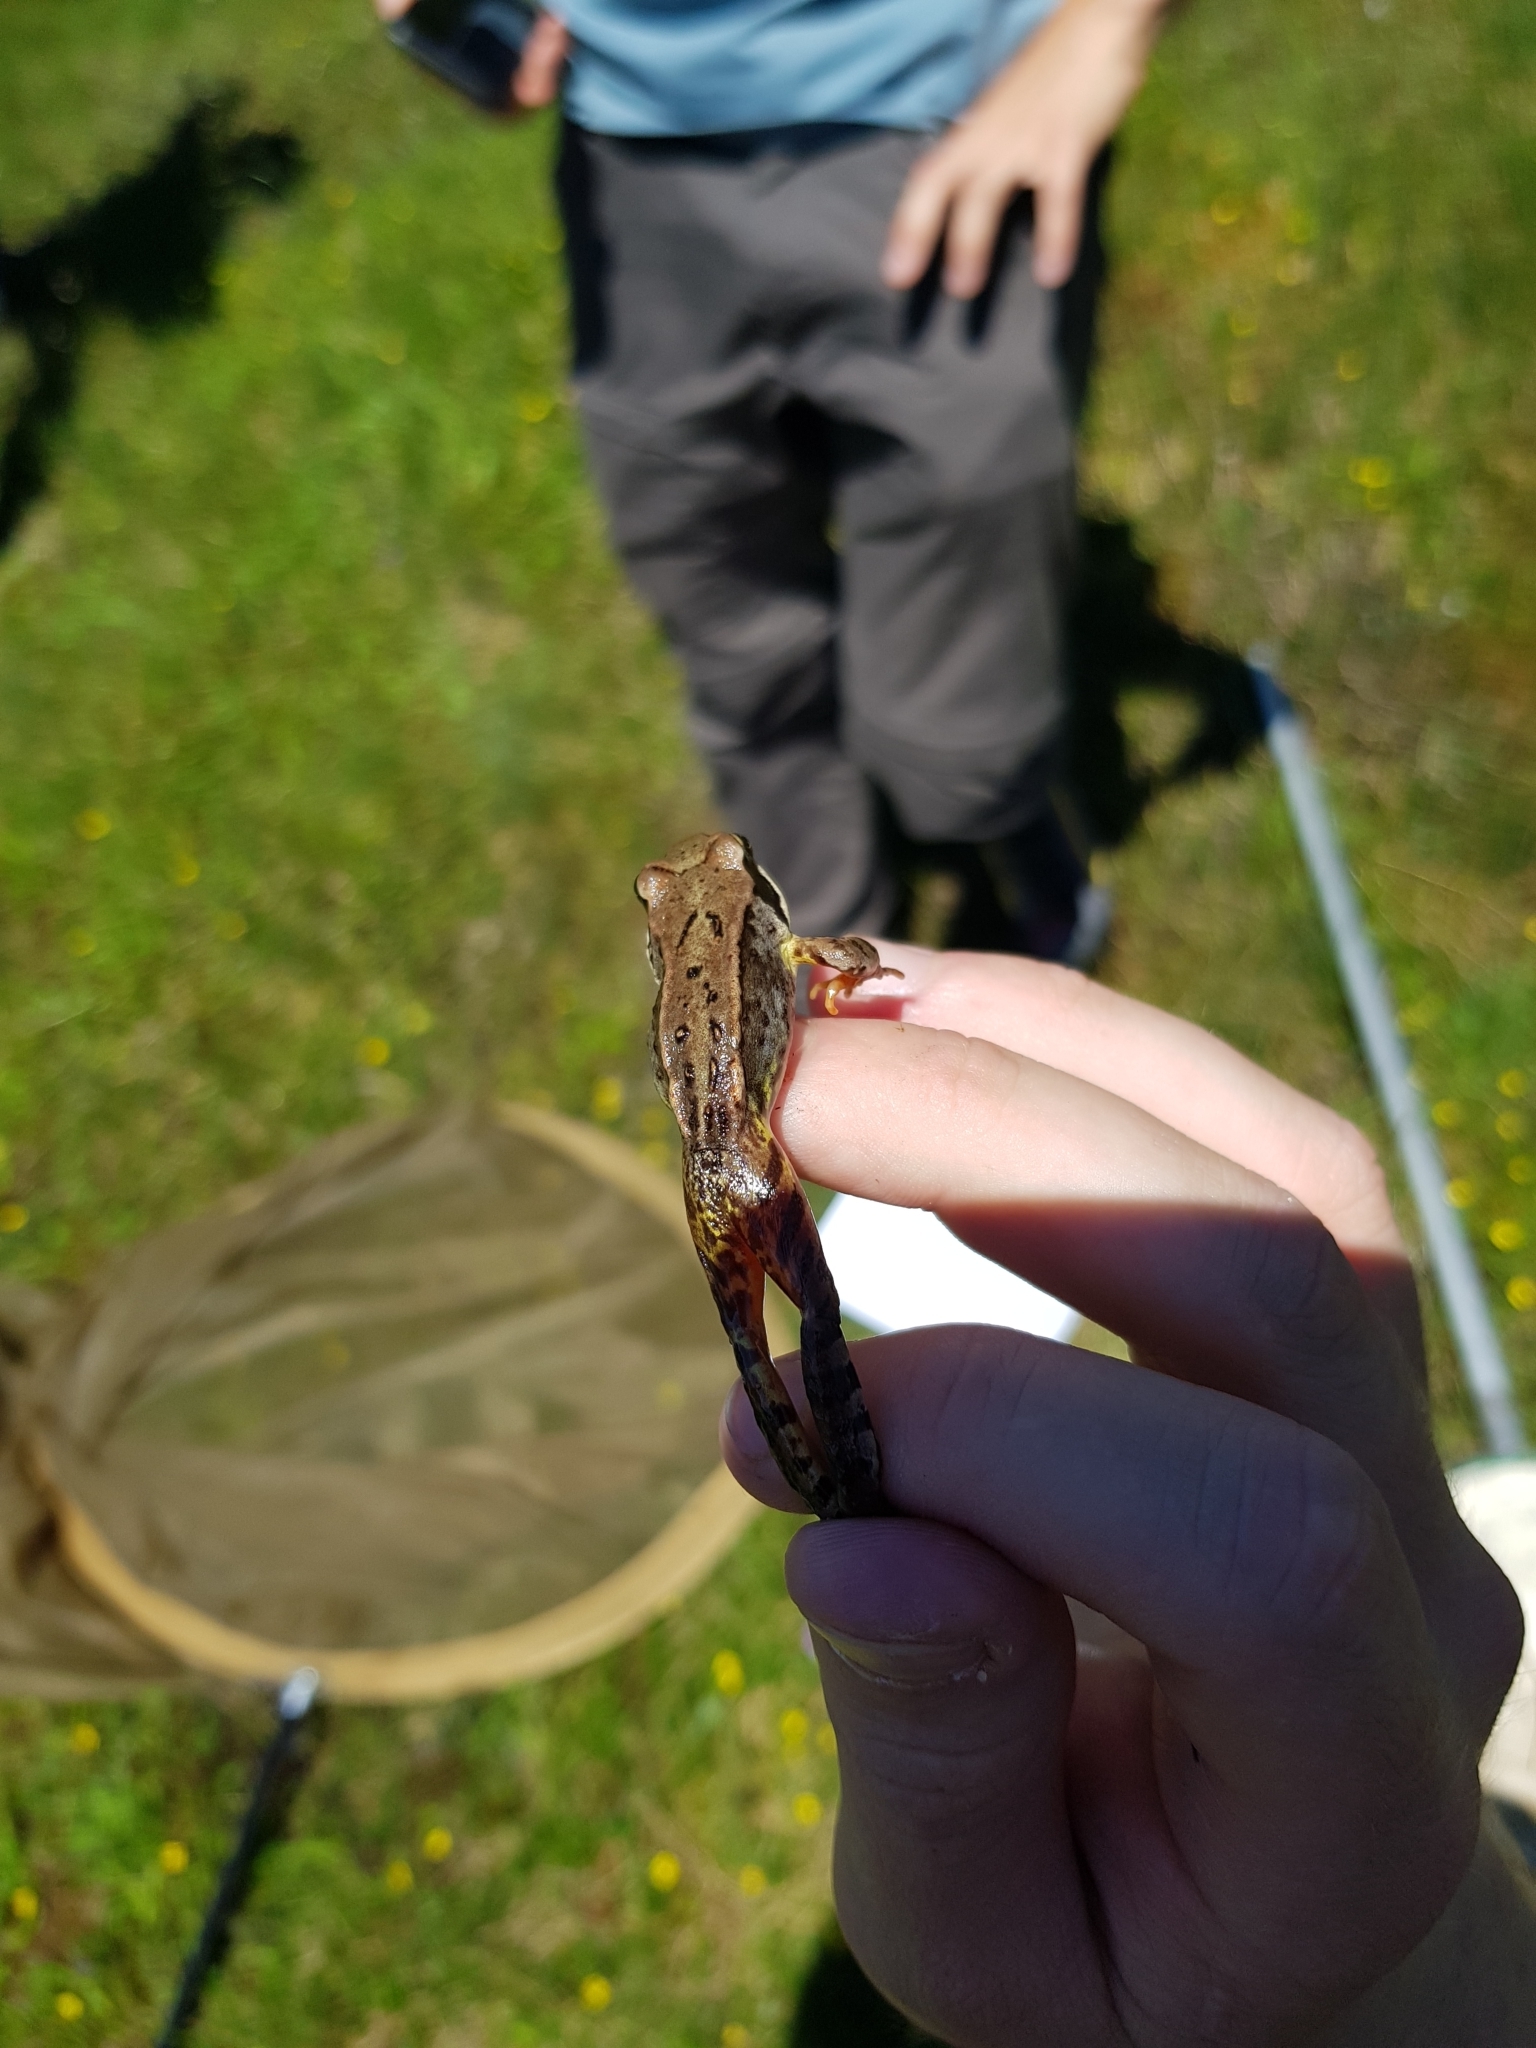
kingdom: Animalia
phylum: Chordata
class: Amphibia
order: Anura
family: Ranidae
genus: Rana
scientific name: Rana temporaria
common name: Common frog
